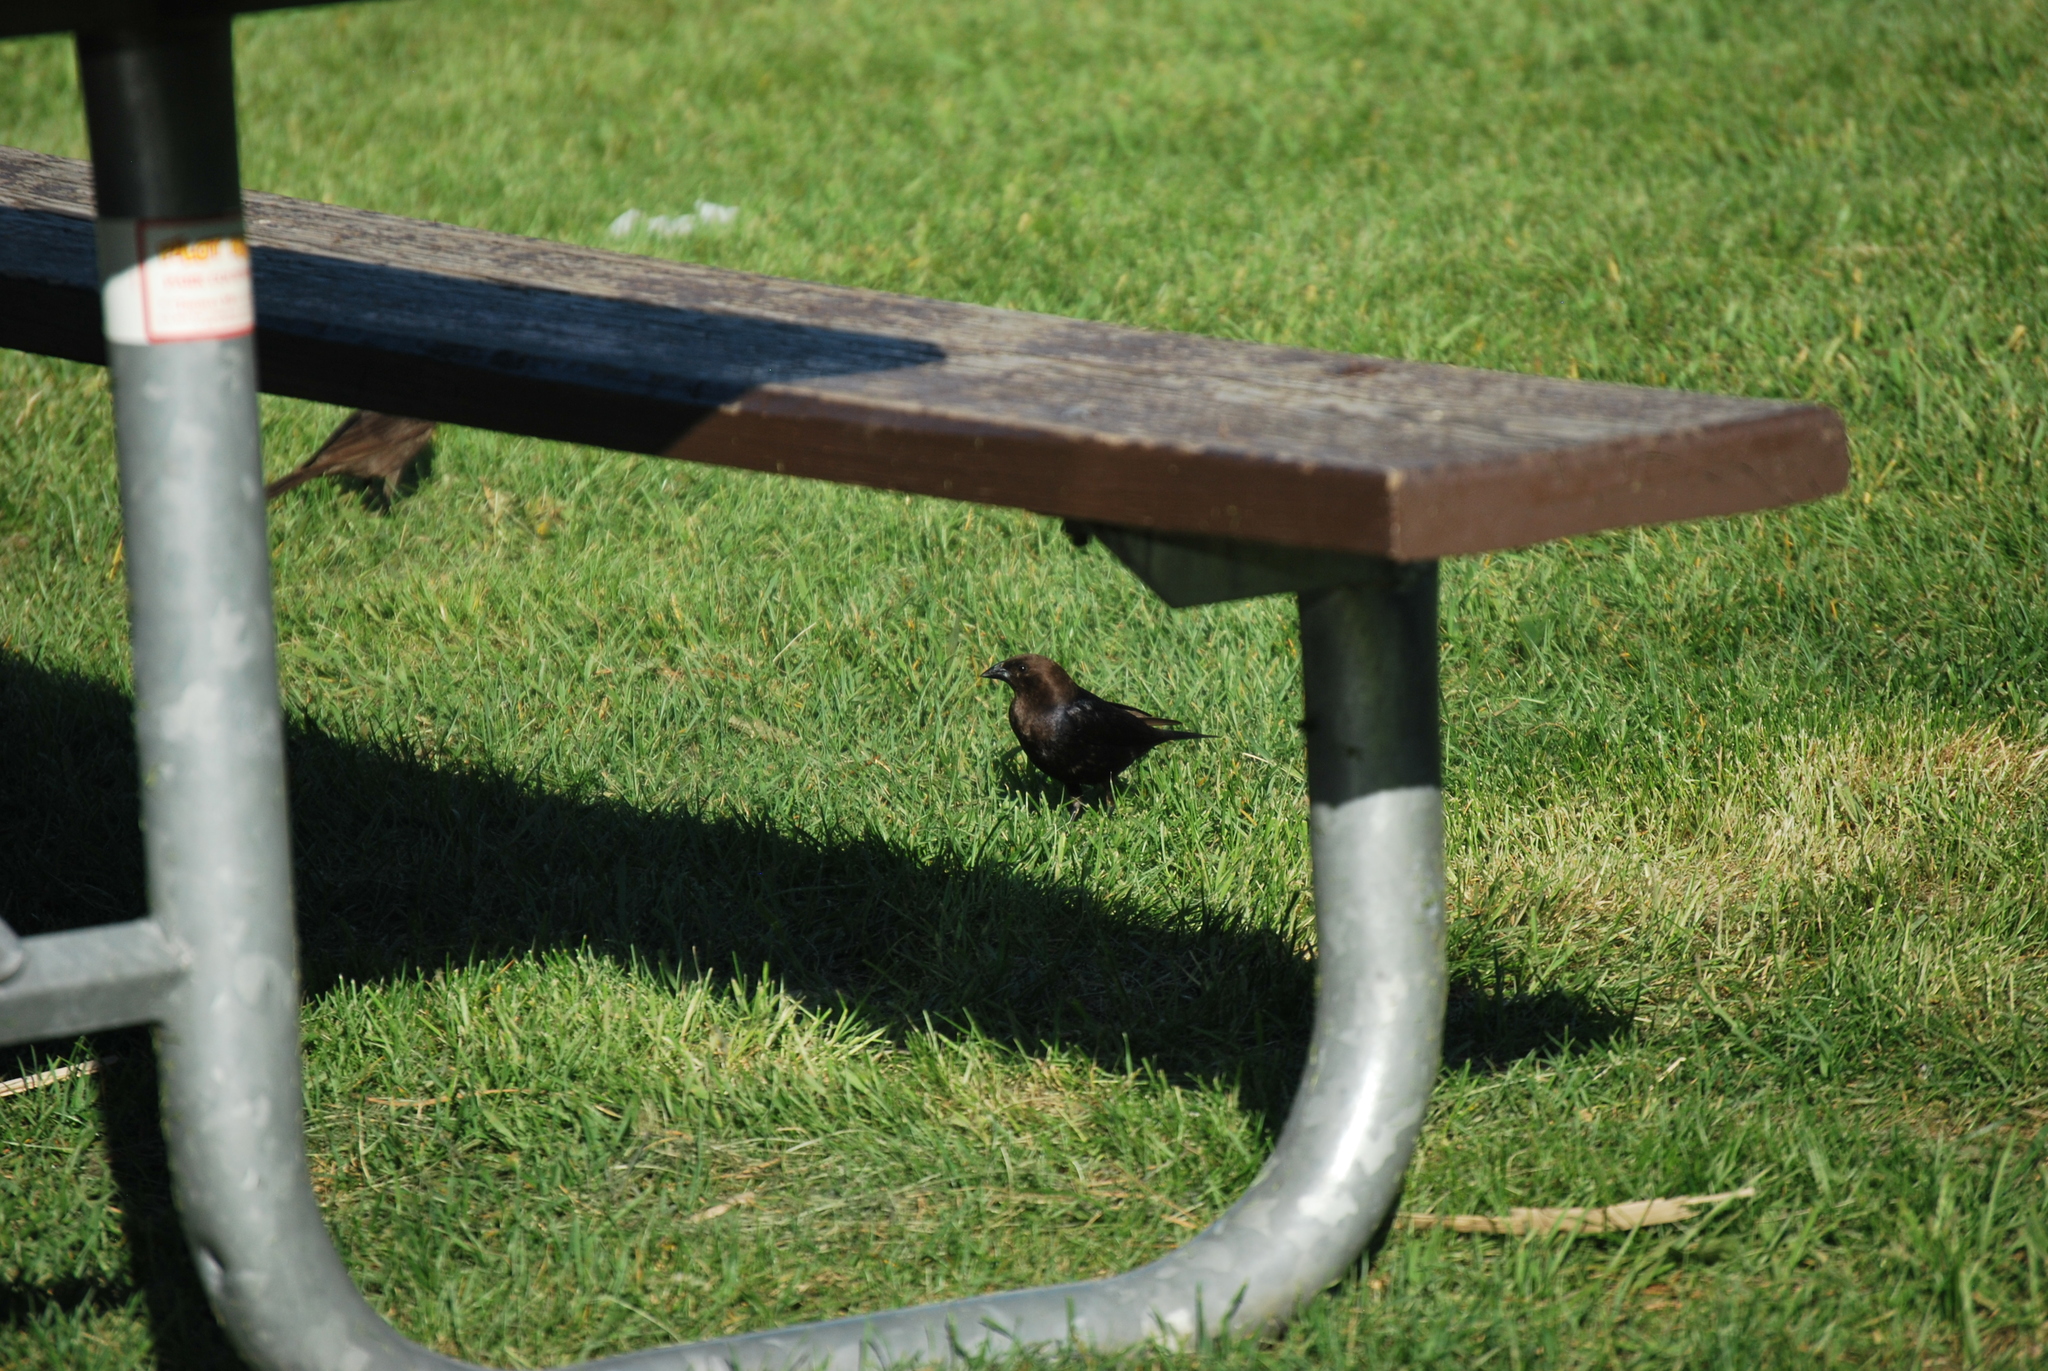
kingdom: Animalia
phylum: Chordata
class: Aves
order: Passeriformes
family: Icteridae
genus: Molothrus
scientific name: Molothrus ater
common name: Brown-headed cowbird
